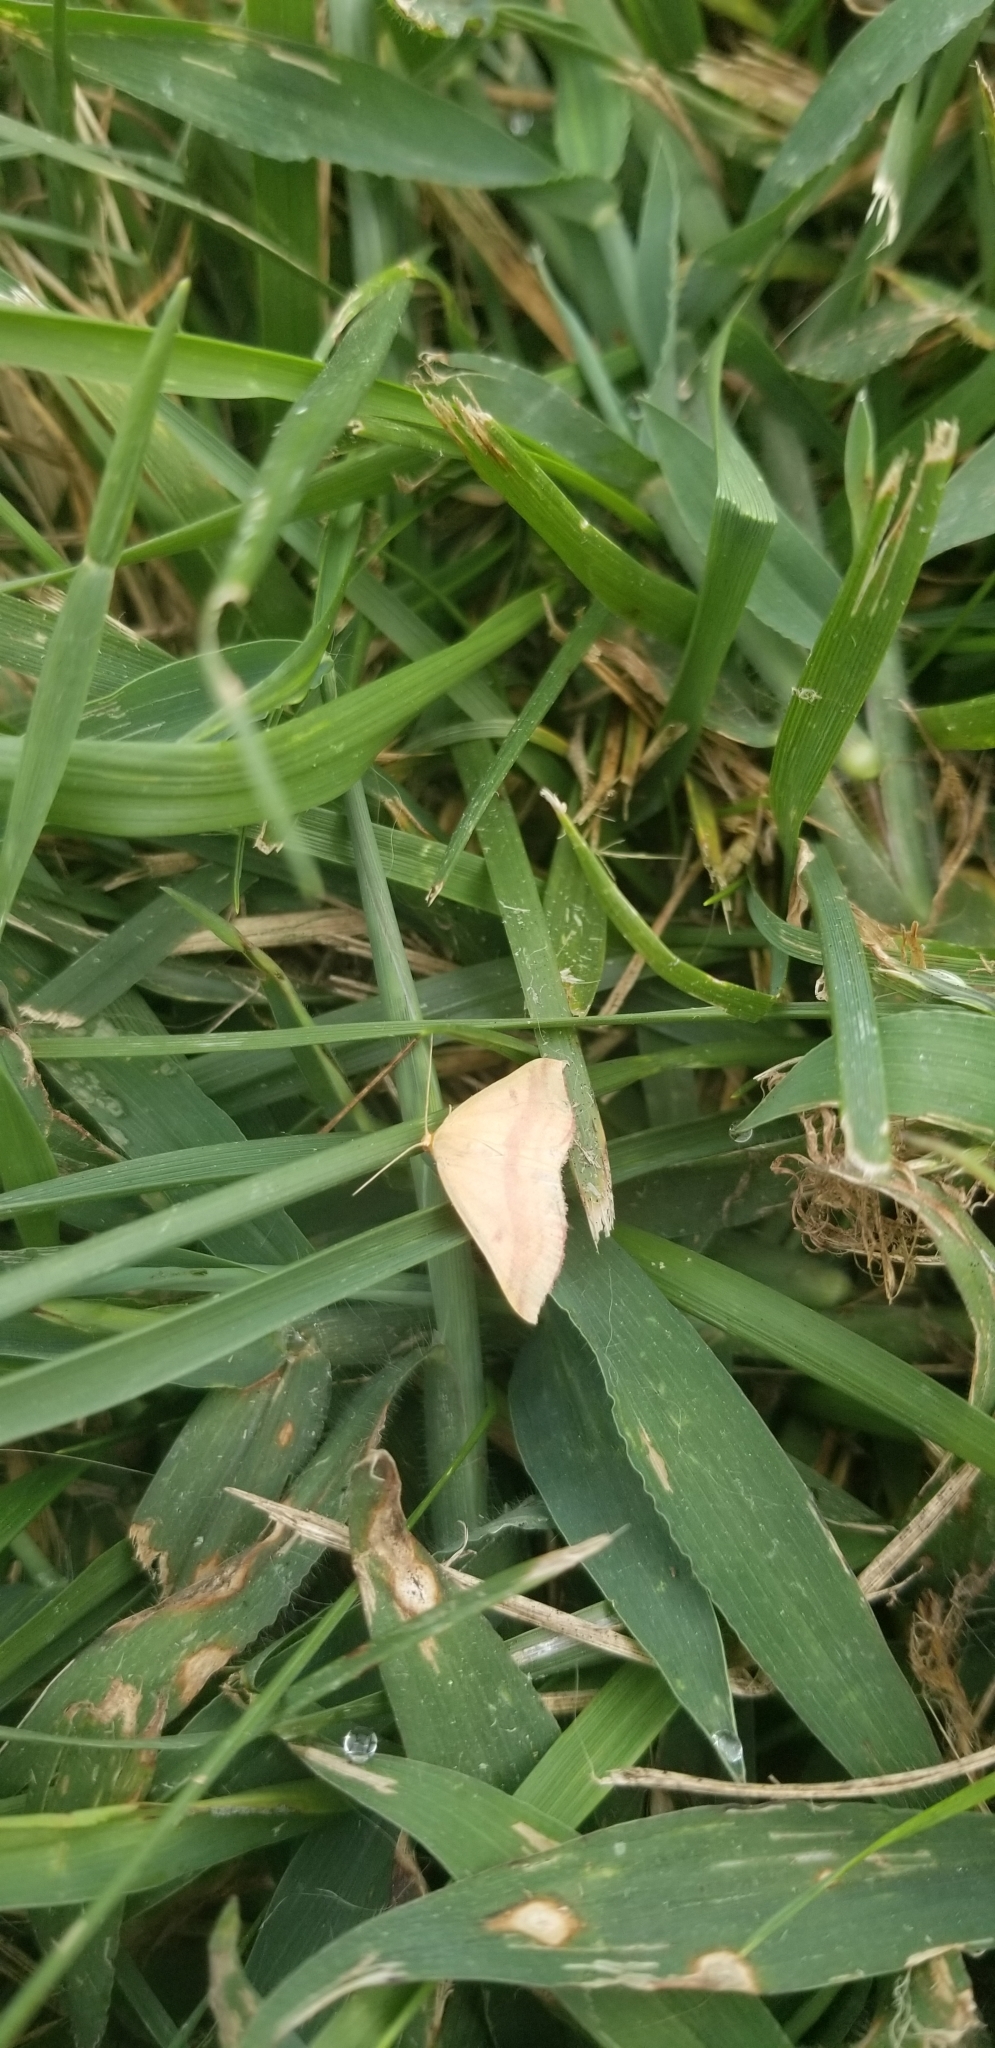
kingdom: Animalia
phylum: Arthropoda
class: Insecta
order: Lepidoptera
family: Geometridae
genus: Haematopis
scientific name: Haematopis grataria
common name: Chickweed geometer
